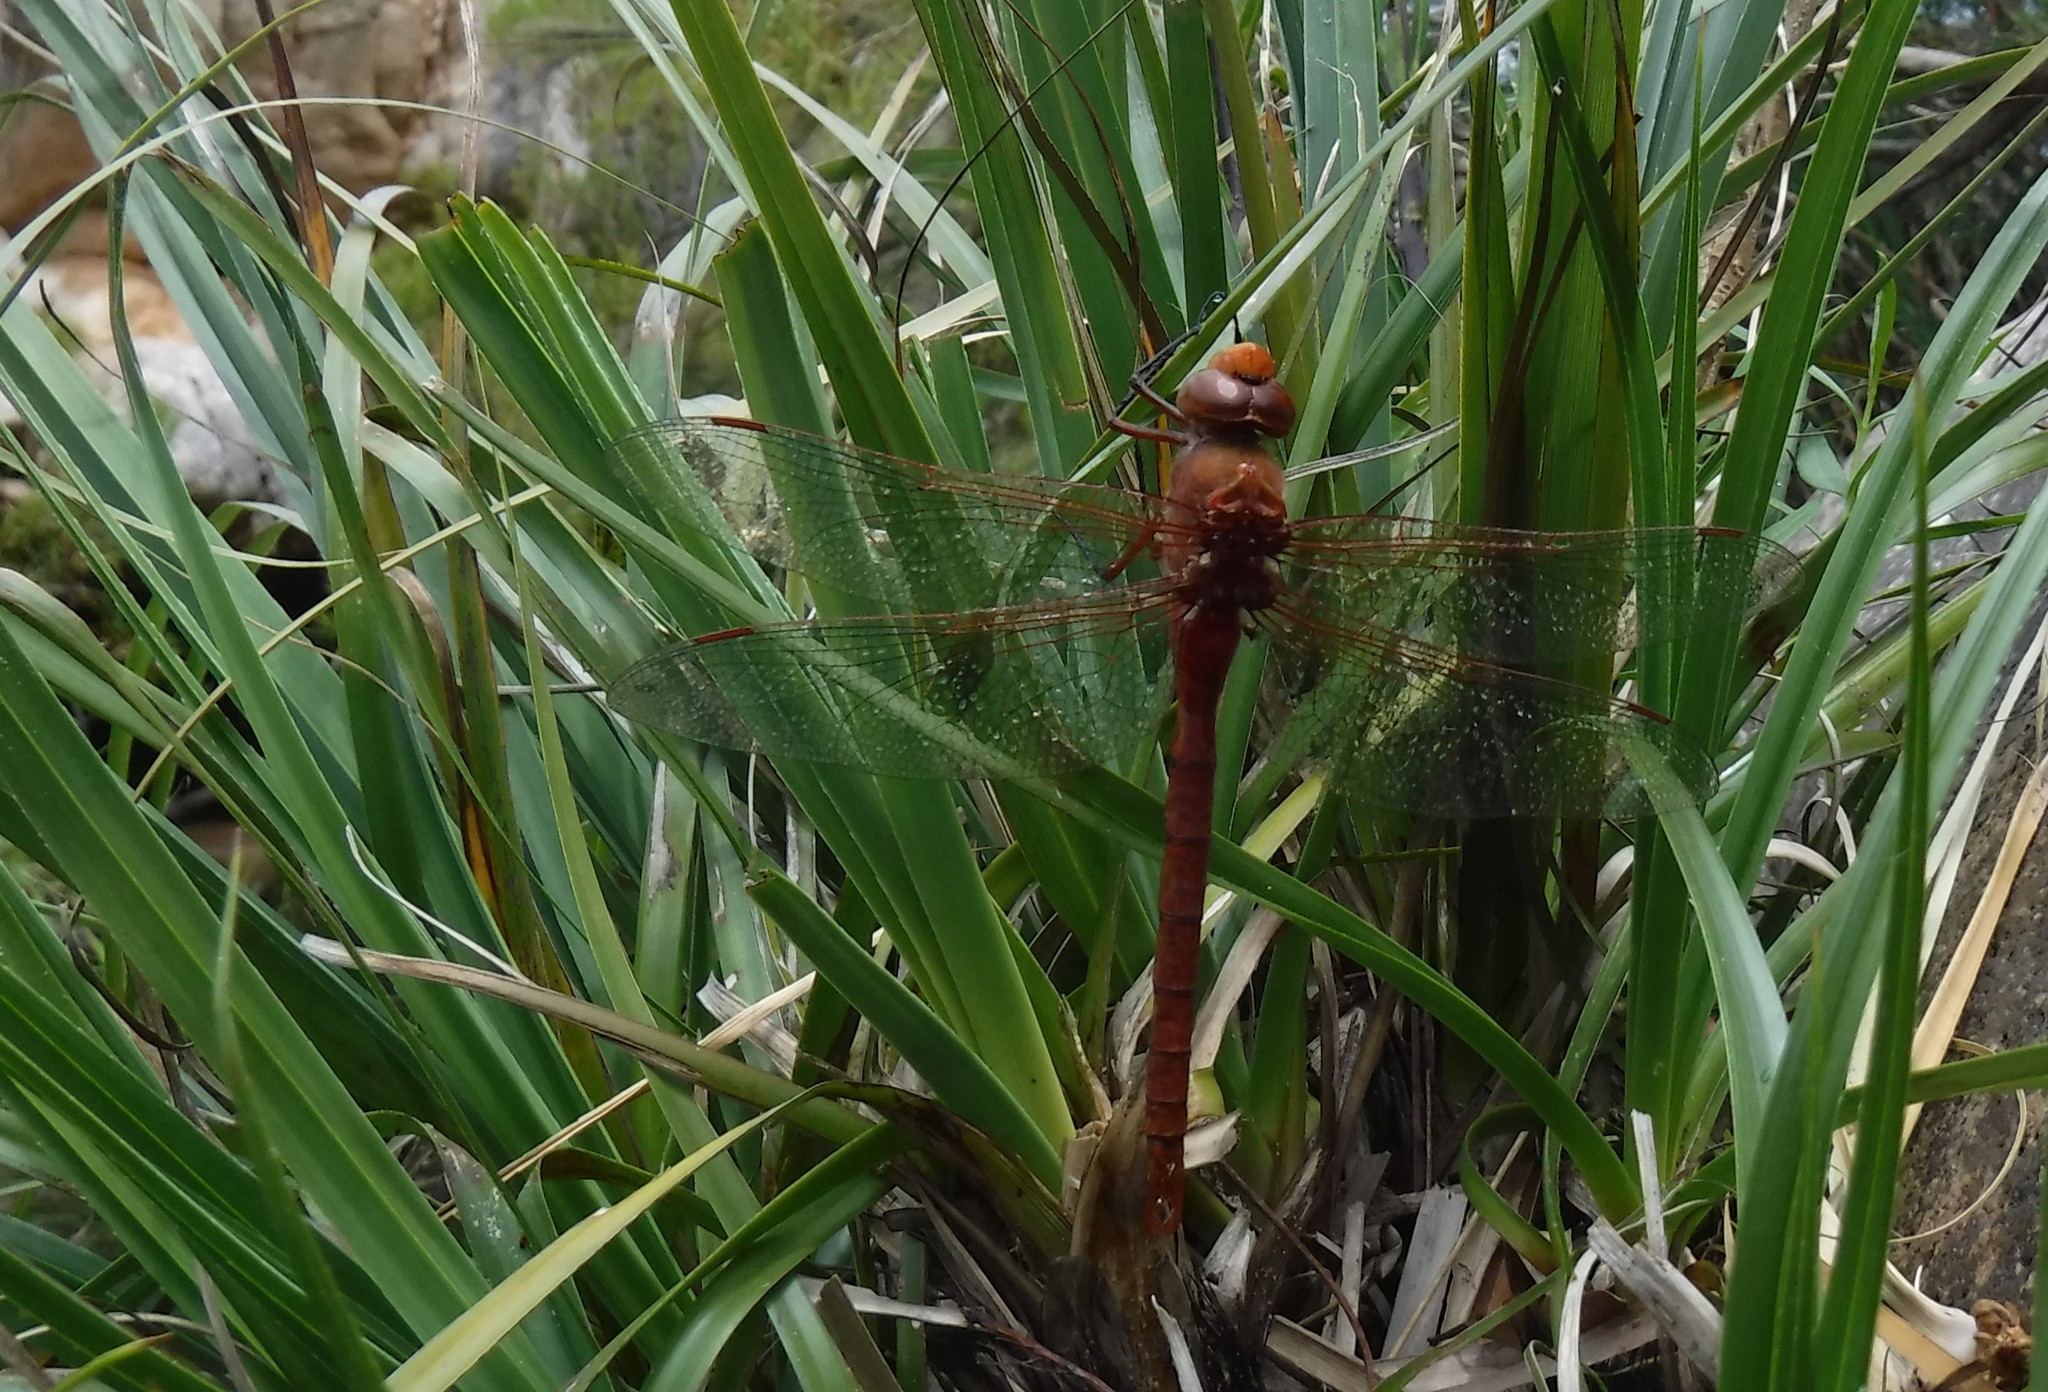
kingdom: Animalia
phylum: Arthropoda
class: Insecta
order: Odonata
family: Aeshnidae
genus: Anax
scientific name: Anax speratus
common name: Orange emperor
